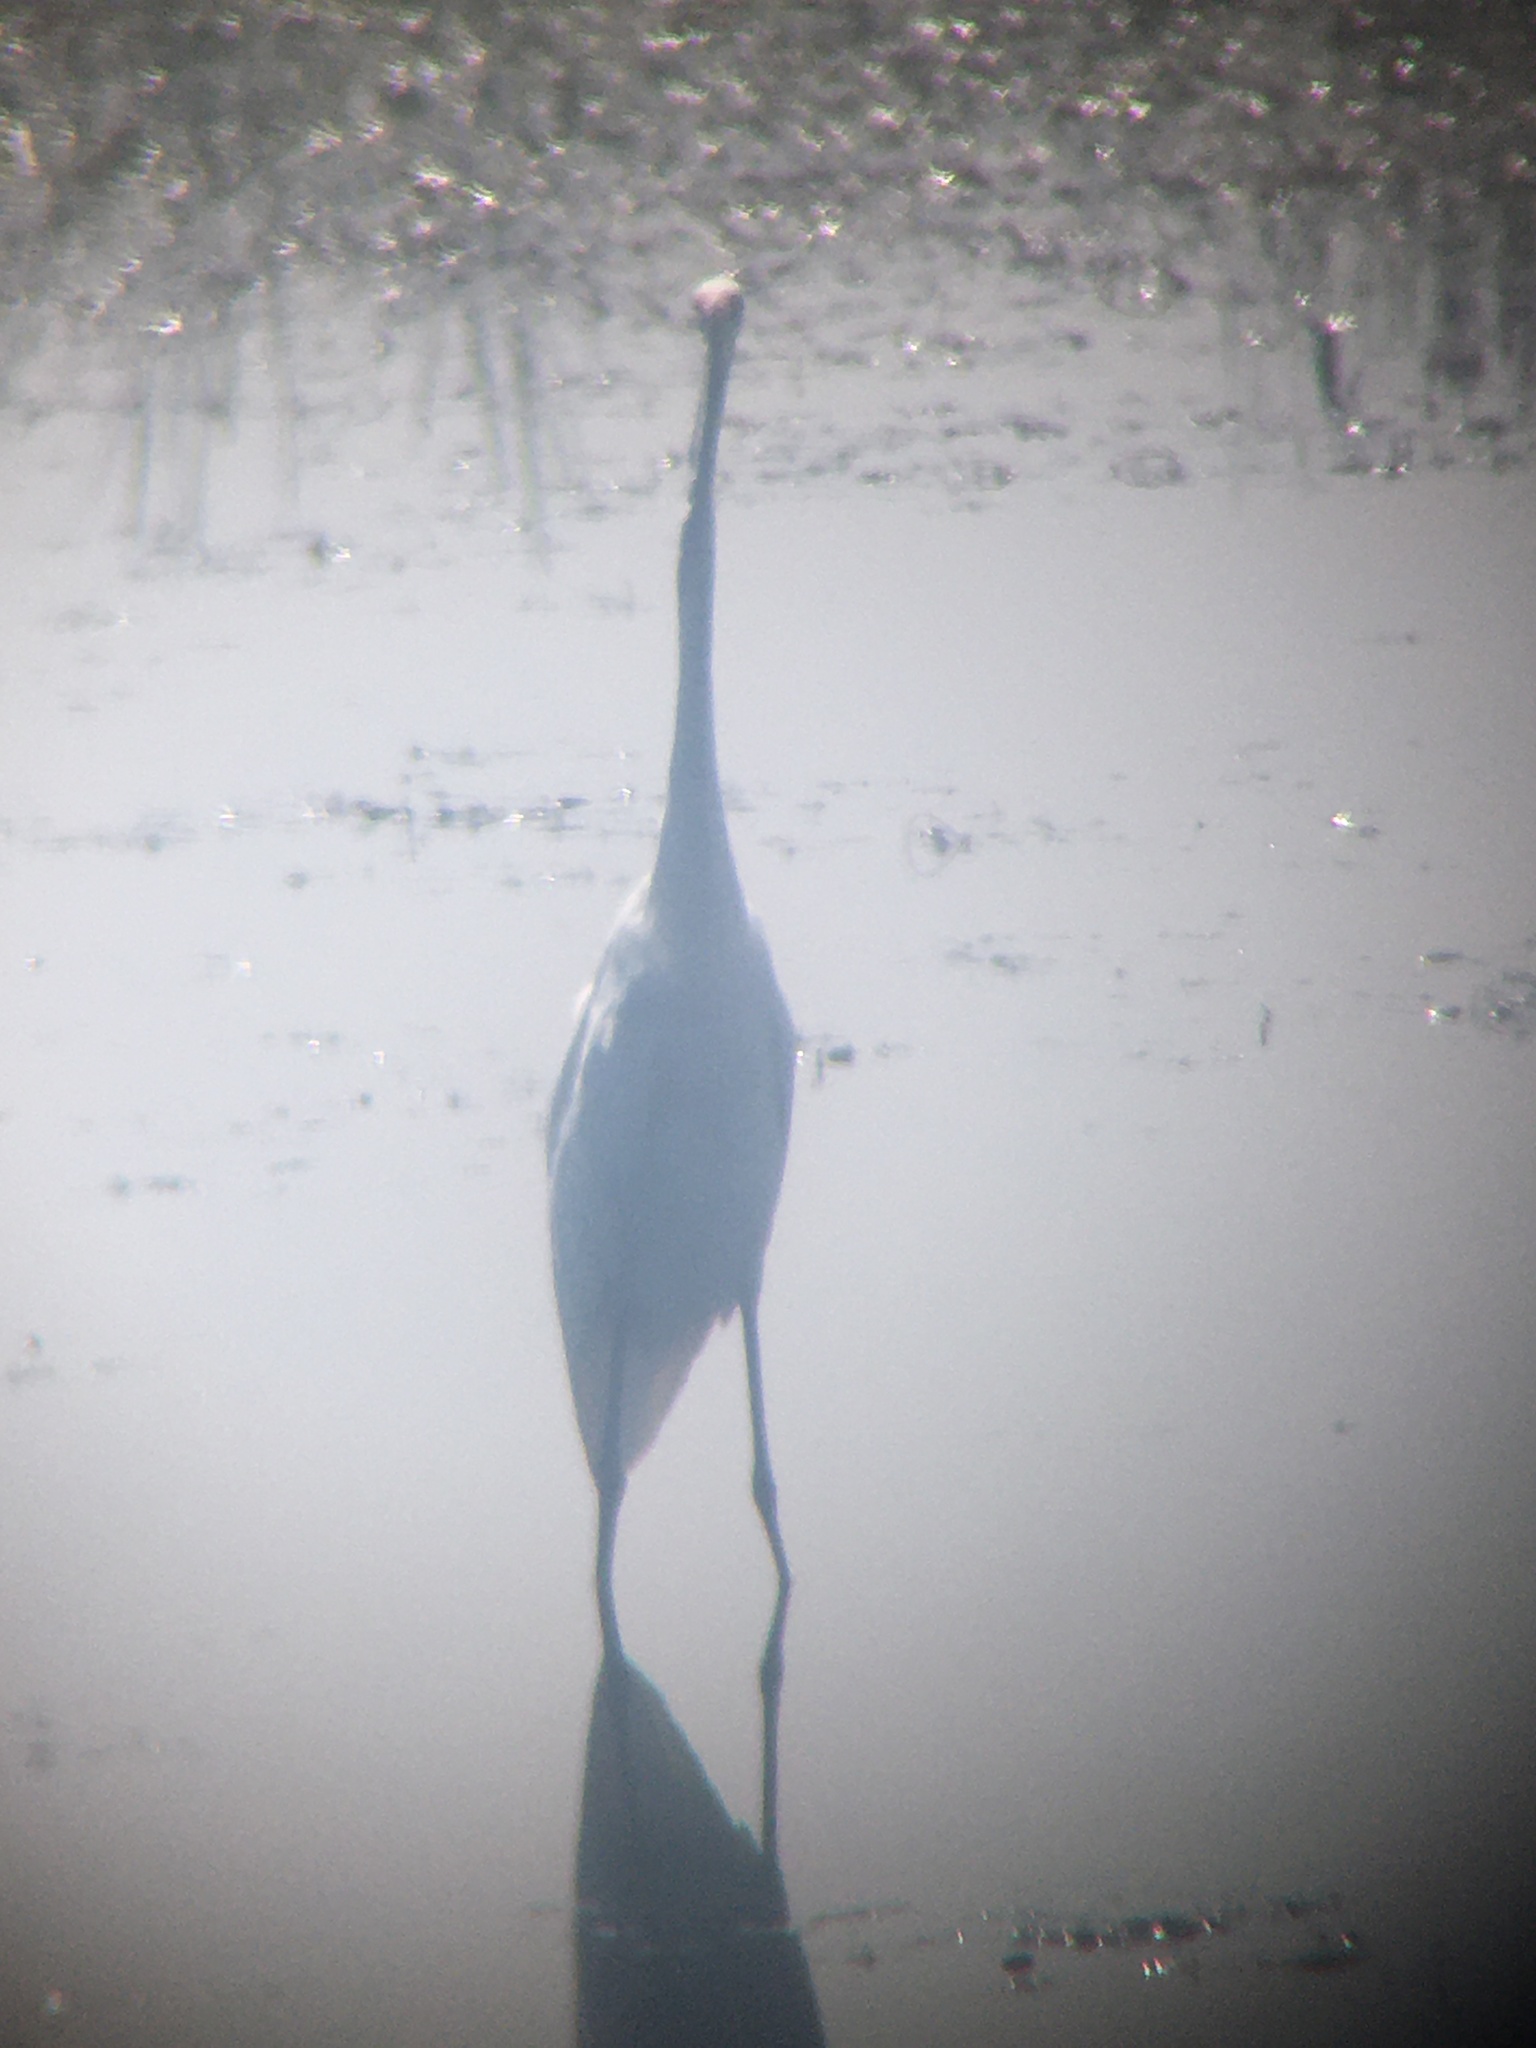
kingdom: Animalia
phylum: Chordata
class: Aves
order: Pelecaniformes
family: Ardeidae
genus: Ardea
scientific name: Ardea alba
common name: Great egret
